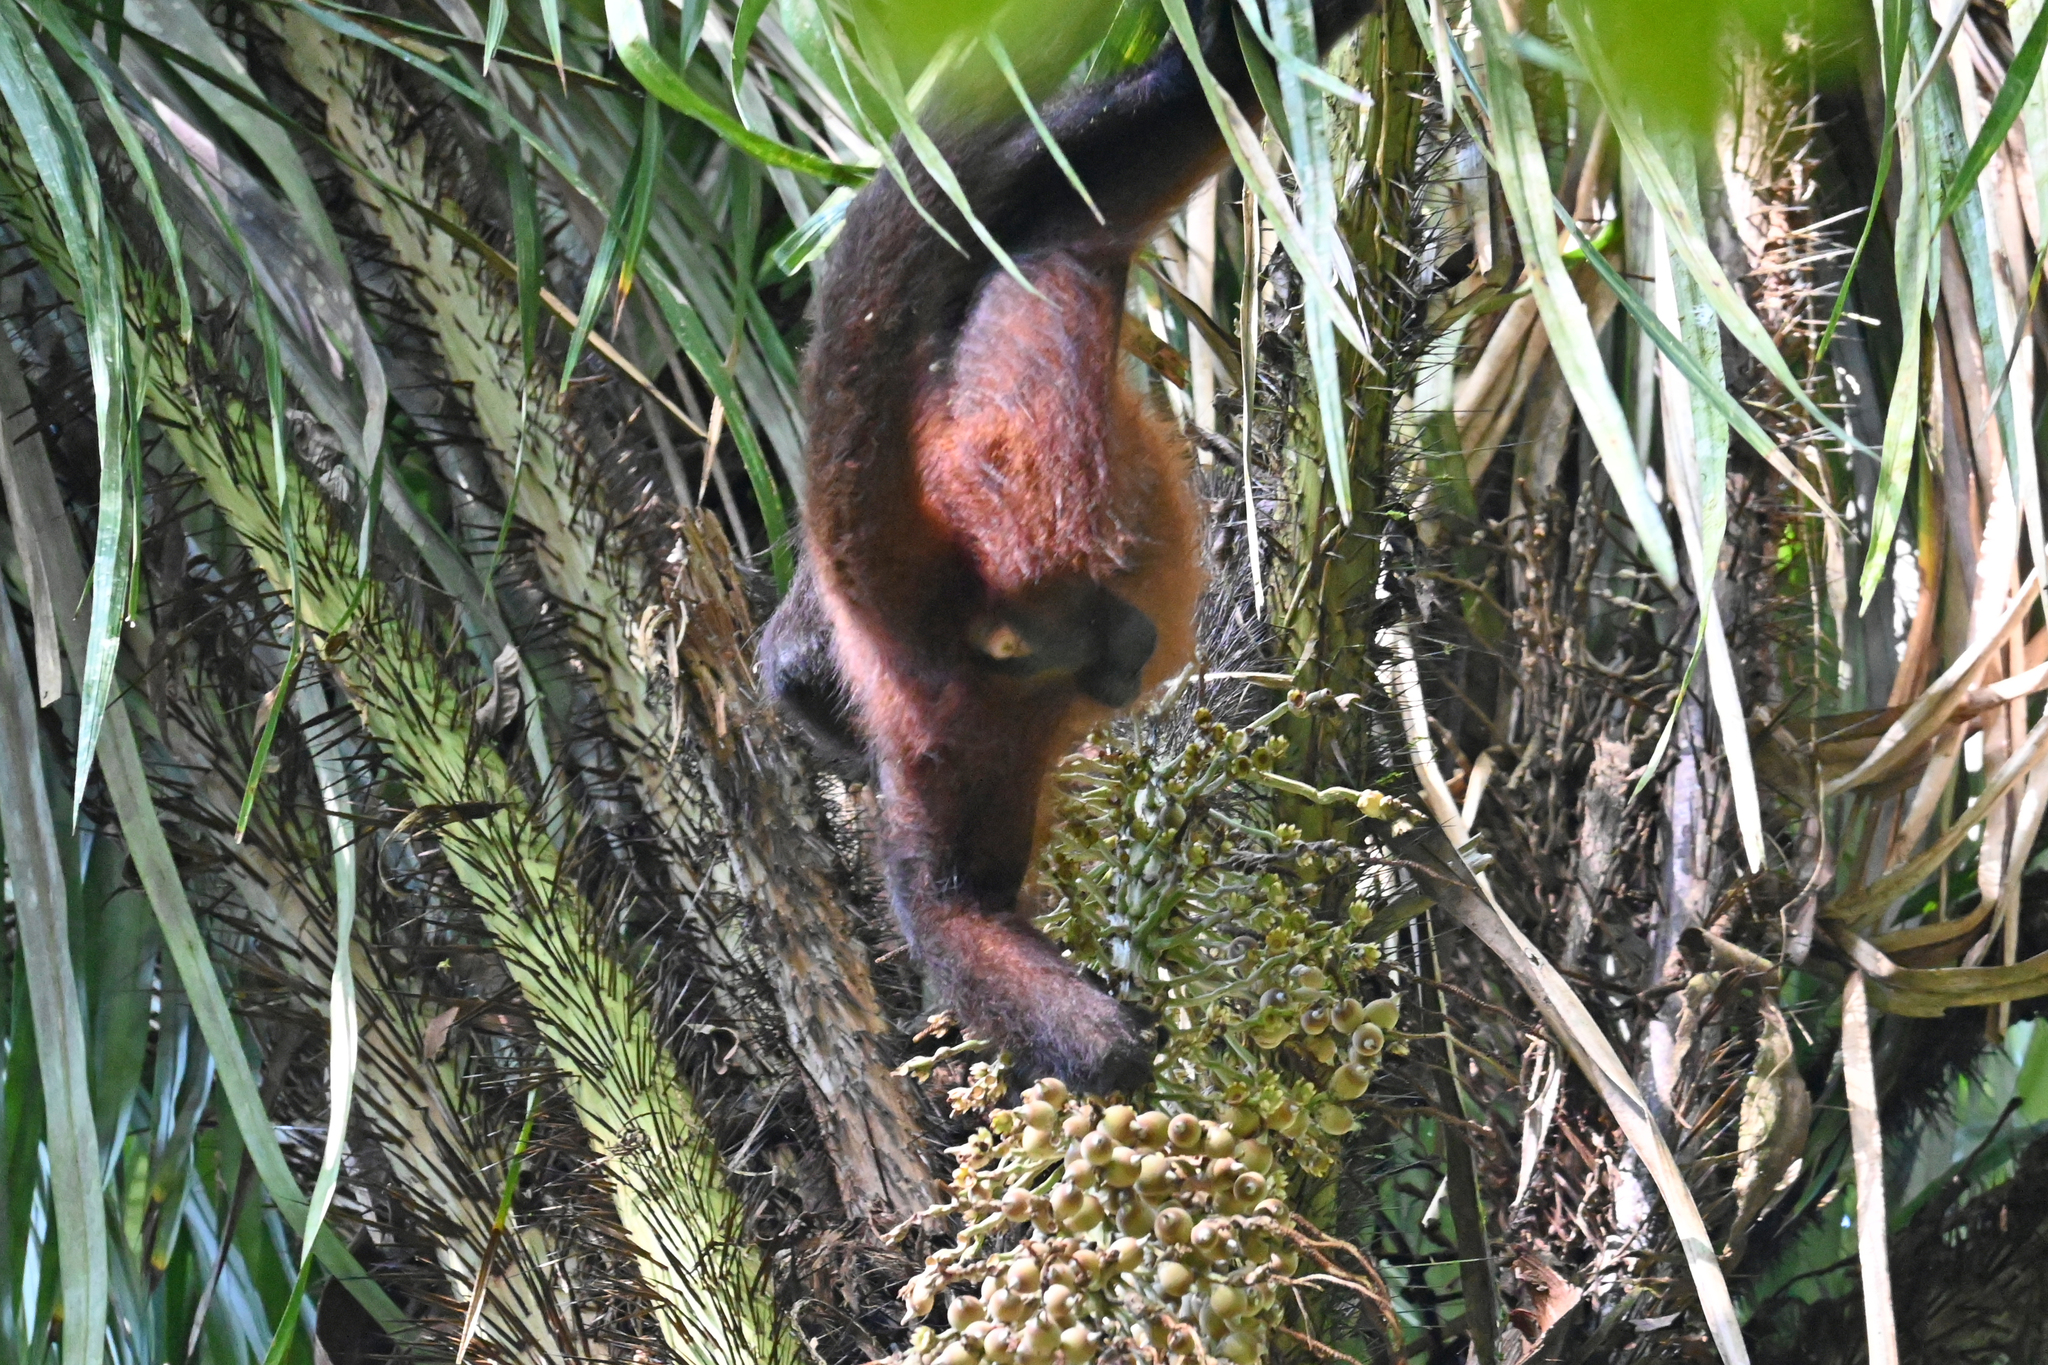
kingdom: Animalia
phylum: Chordata
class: Mammalia
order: Primates
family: Atelidae
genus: Ateles
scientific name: Ateles geoffroyi
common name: Black-handed spider monkey
